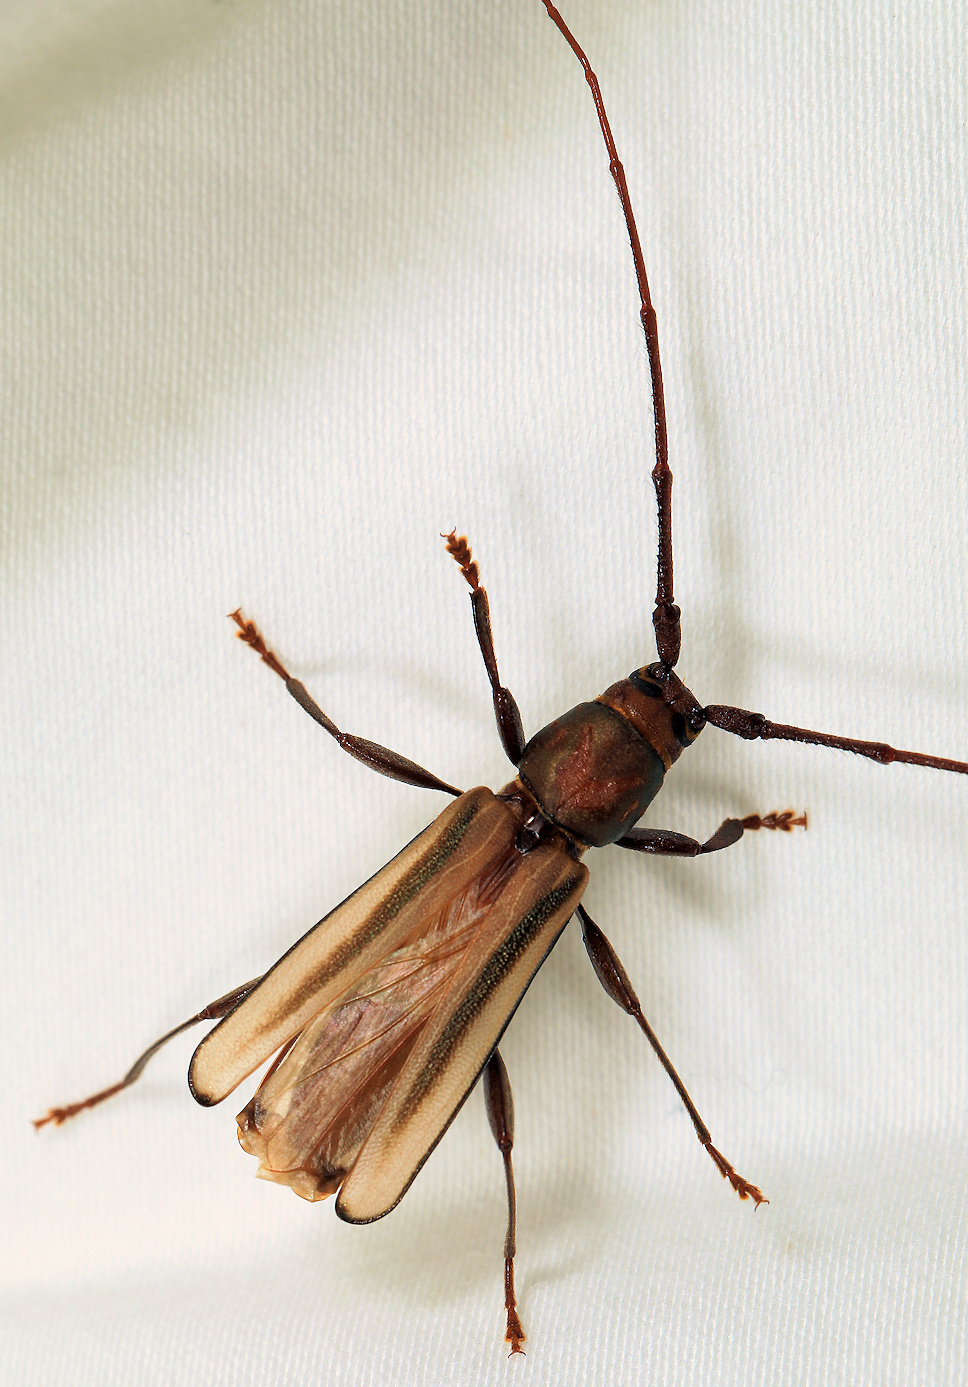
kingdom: Animalia
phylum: Arthropoda
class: Insecta
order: Coleoptera
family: Cerambycidae
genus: Xystrocera
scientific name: Xystrocera dispar
